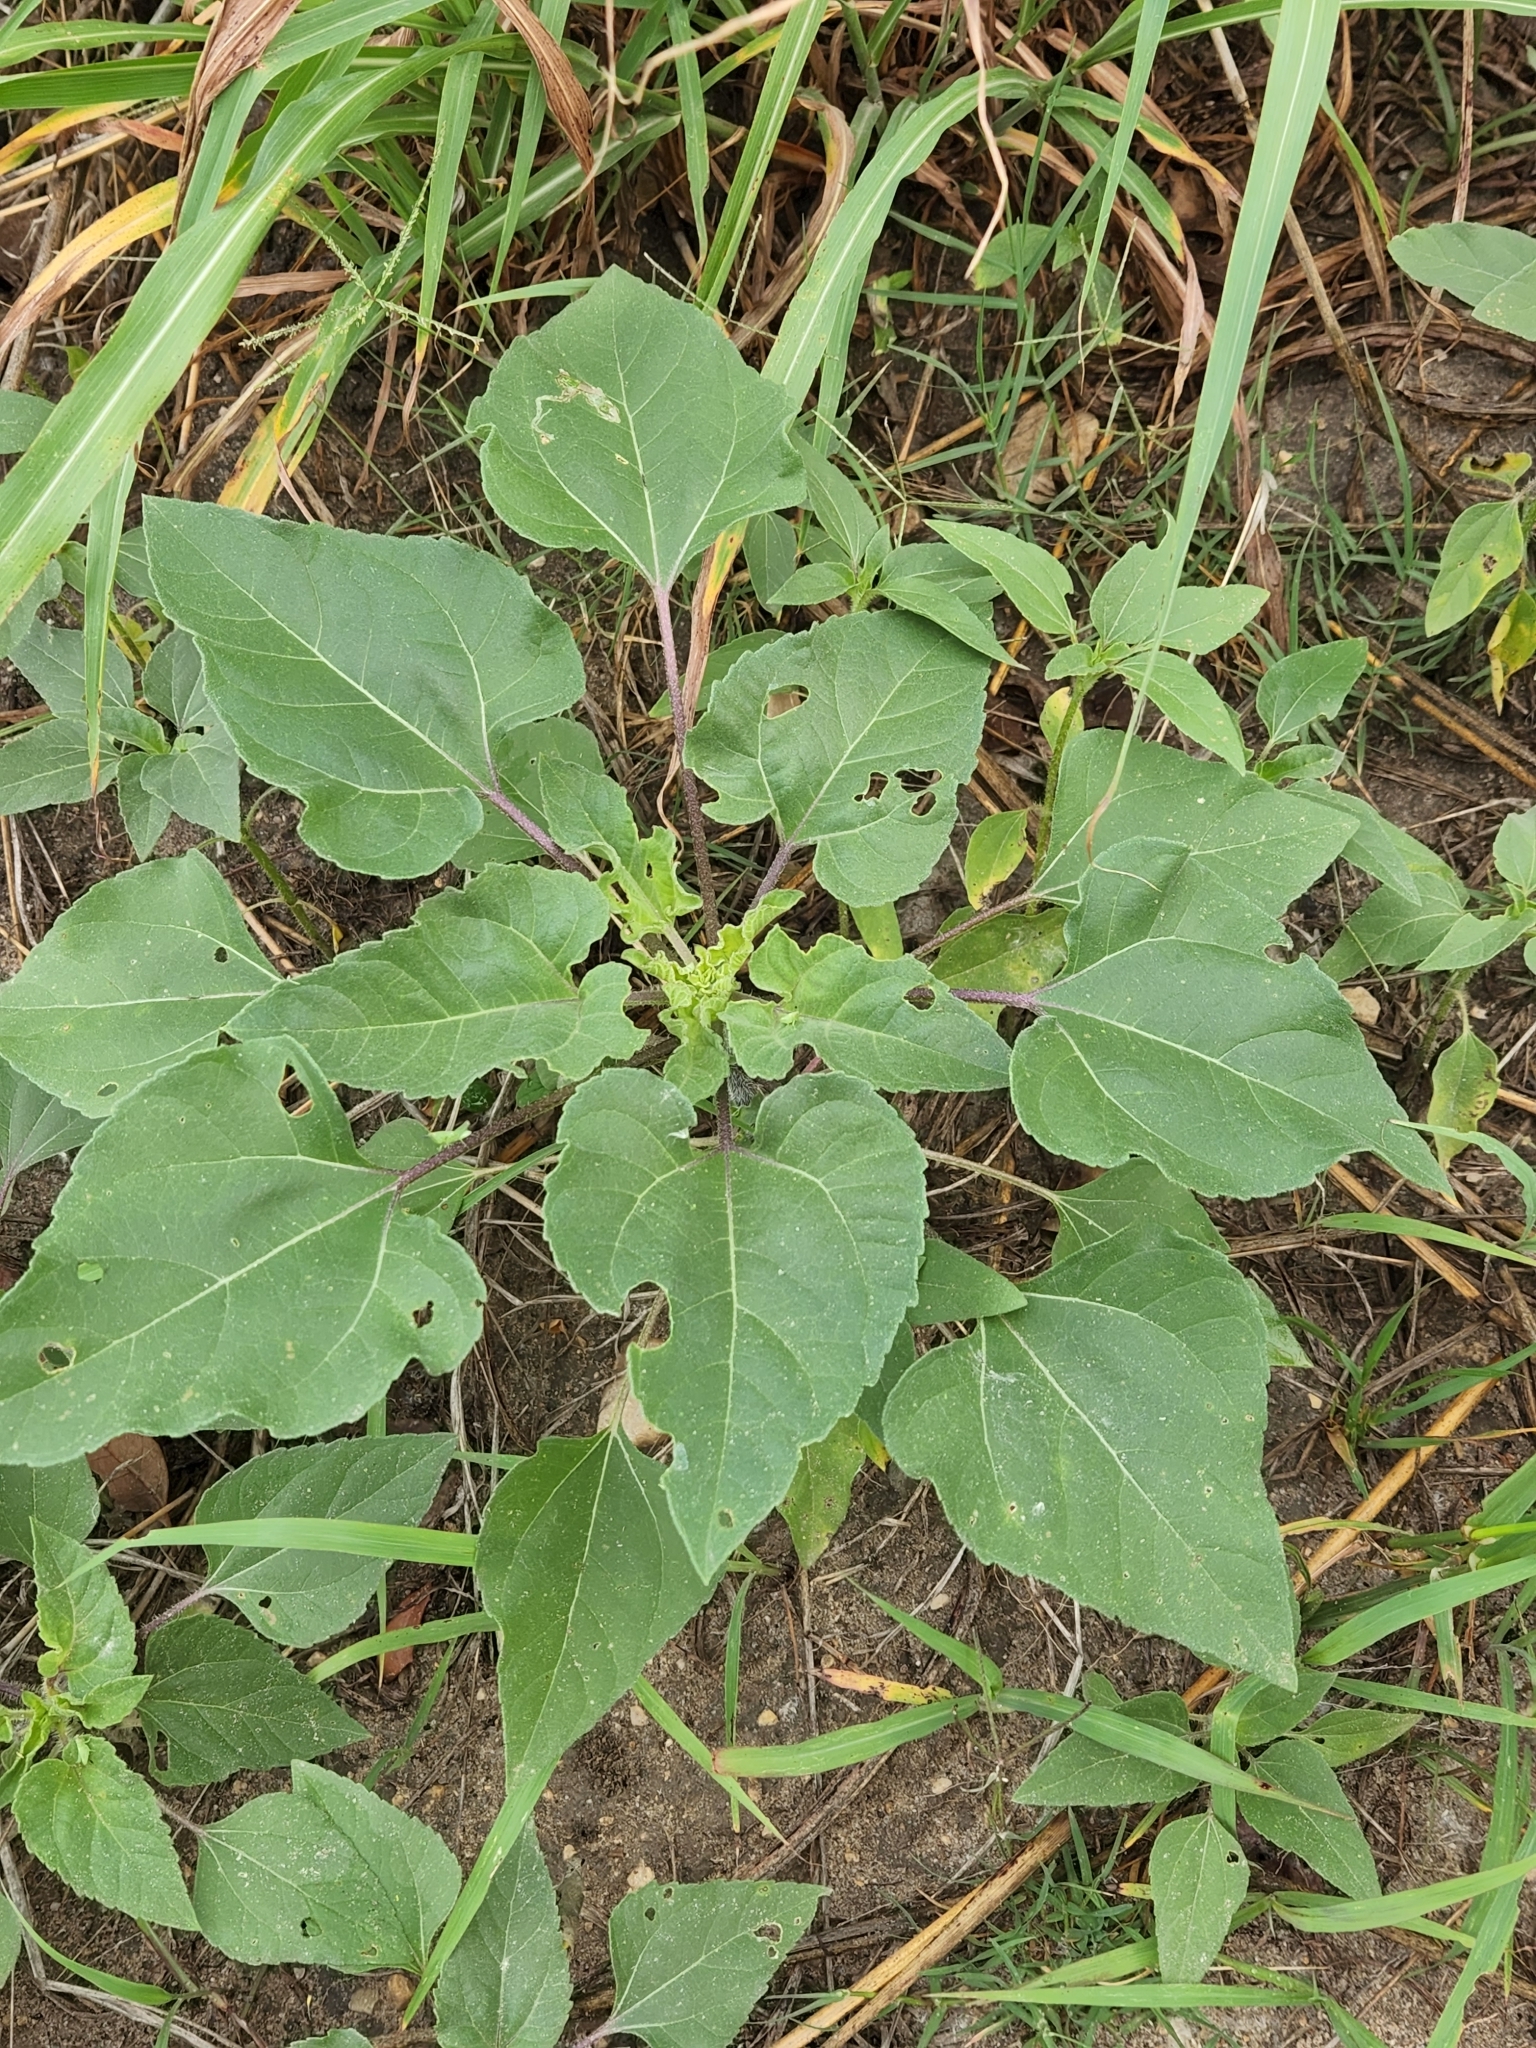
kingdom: Plantae
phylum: Tracheophyta
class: Magnoliopsida
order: Asterales
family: Asteraceae
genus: Helianthus
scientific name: Helianthus annuus
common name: Sunflower
